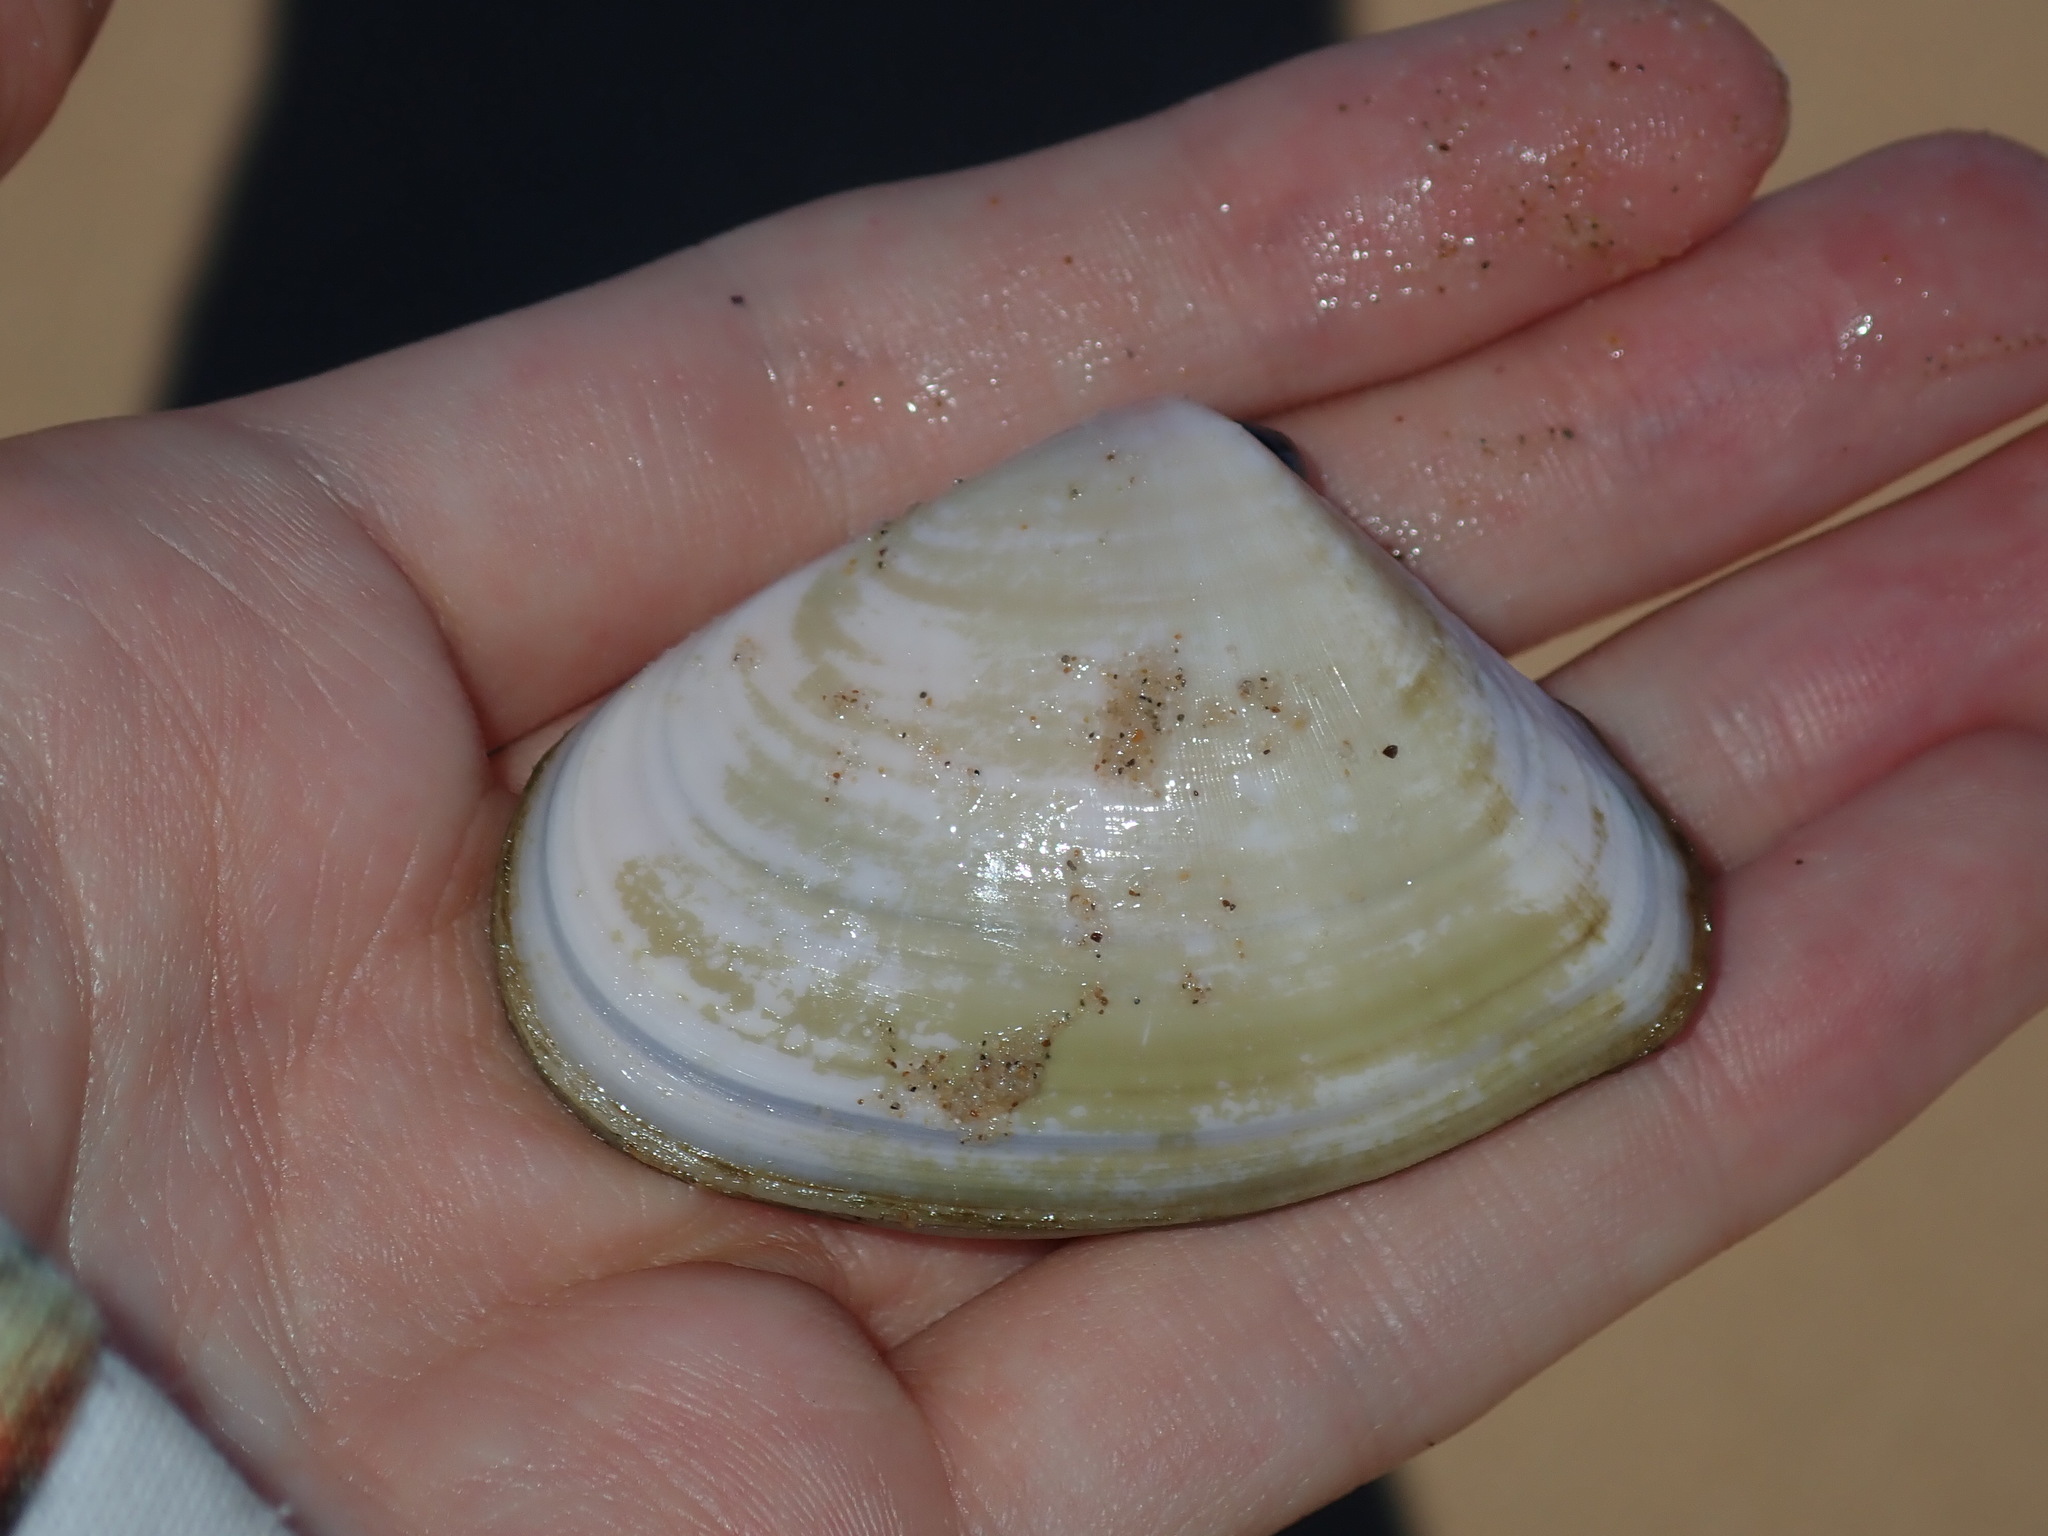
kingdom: Animalia
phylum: Mollusca
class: Bivalvia
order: Cardiida
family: Donacidae
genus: Latona
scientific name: Latona deltoides
